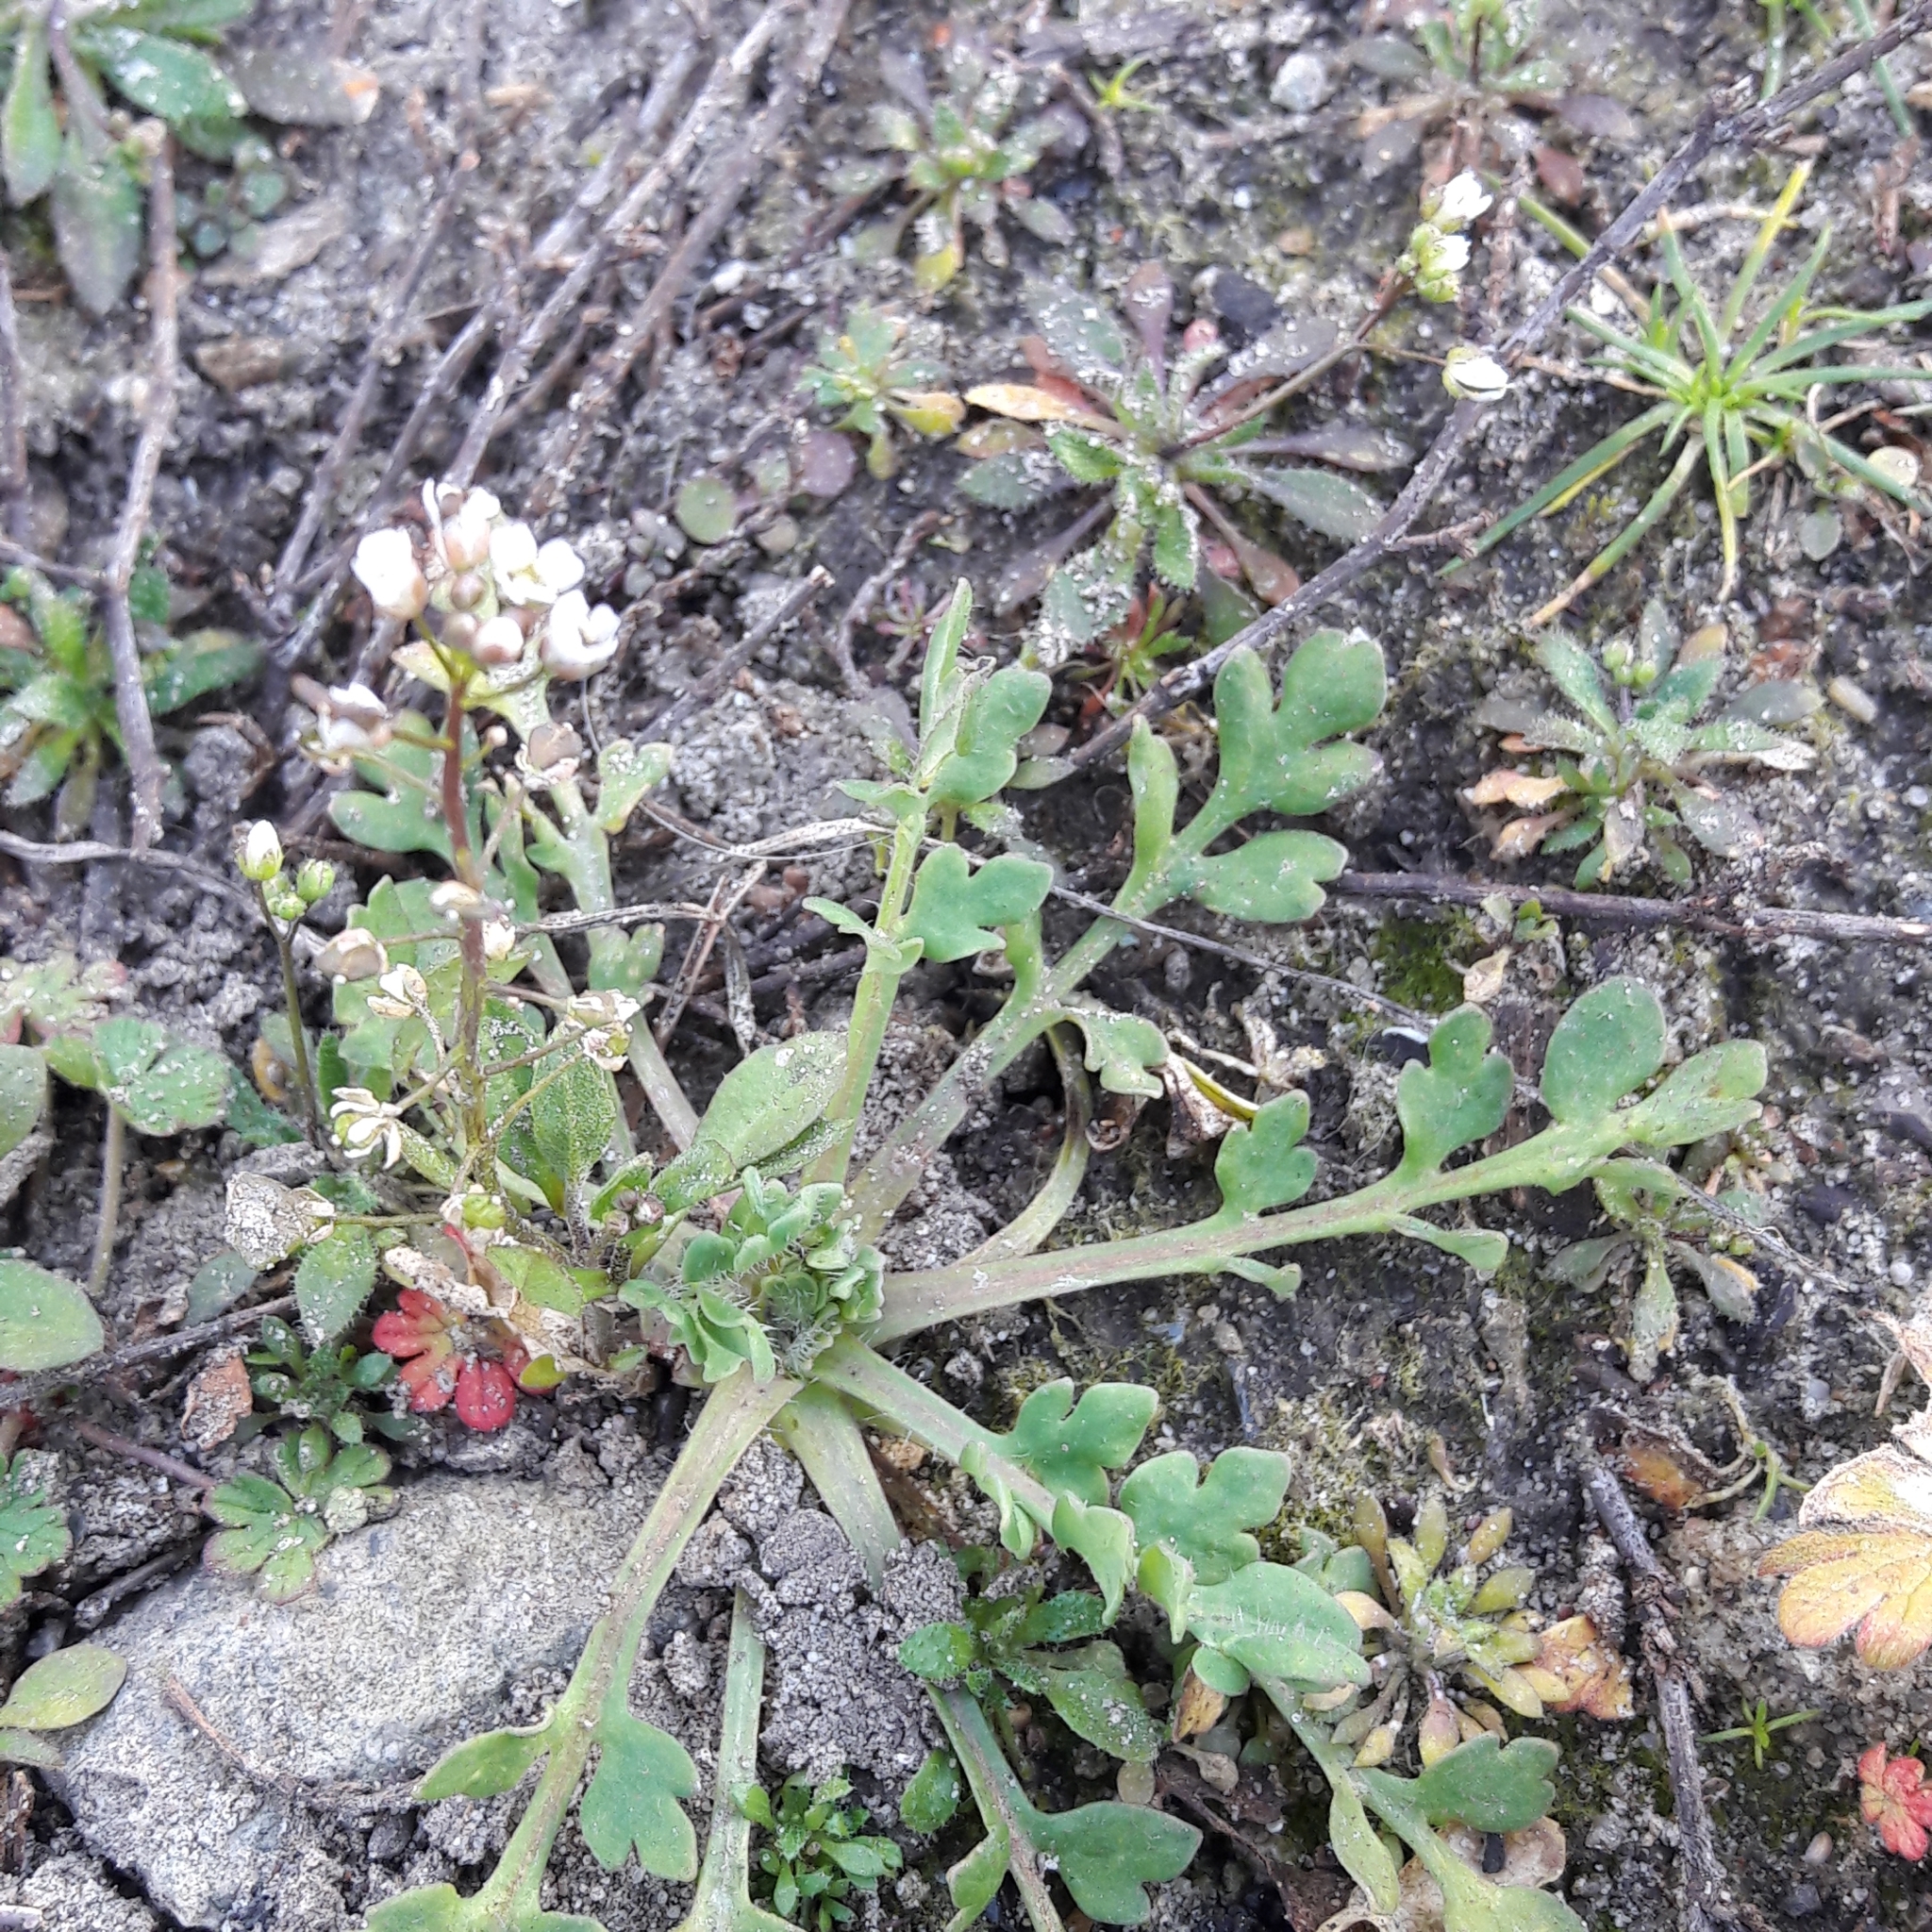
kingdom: Plantae
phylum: Tracheophyta
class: Magnoliopsida
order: Brassicales
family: Brassicaceae
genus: Capsella
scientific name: Capsella bursa-pastoris
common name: Shepherd's purse
